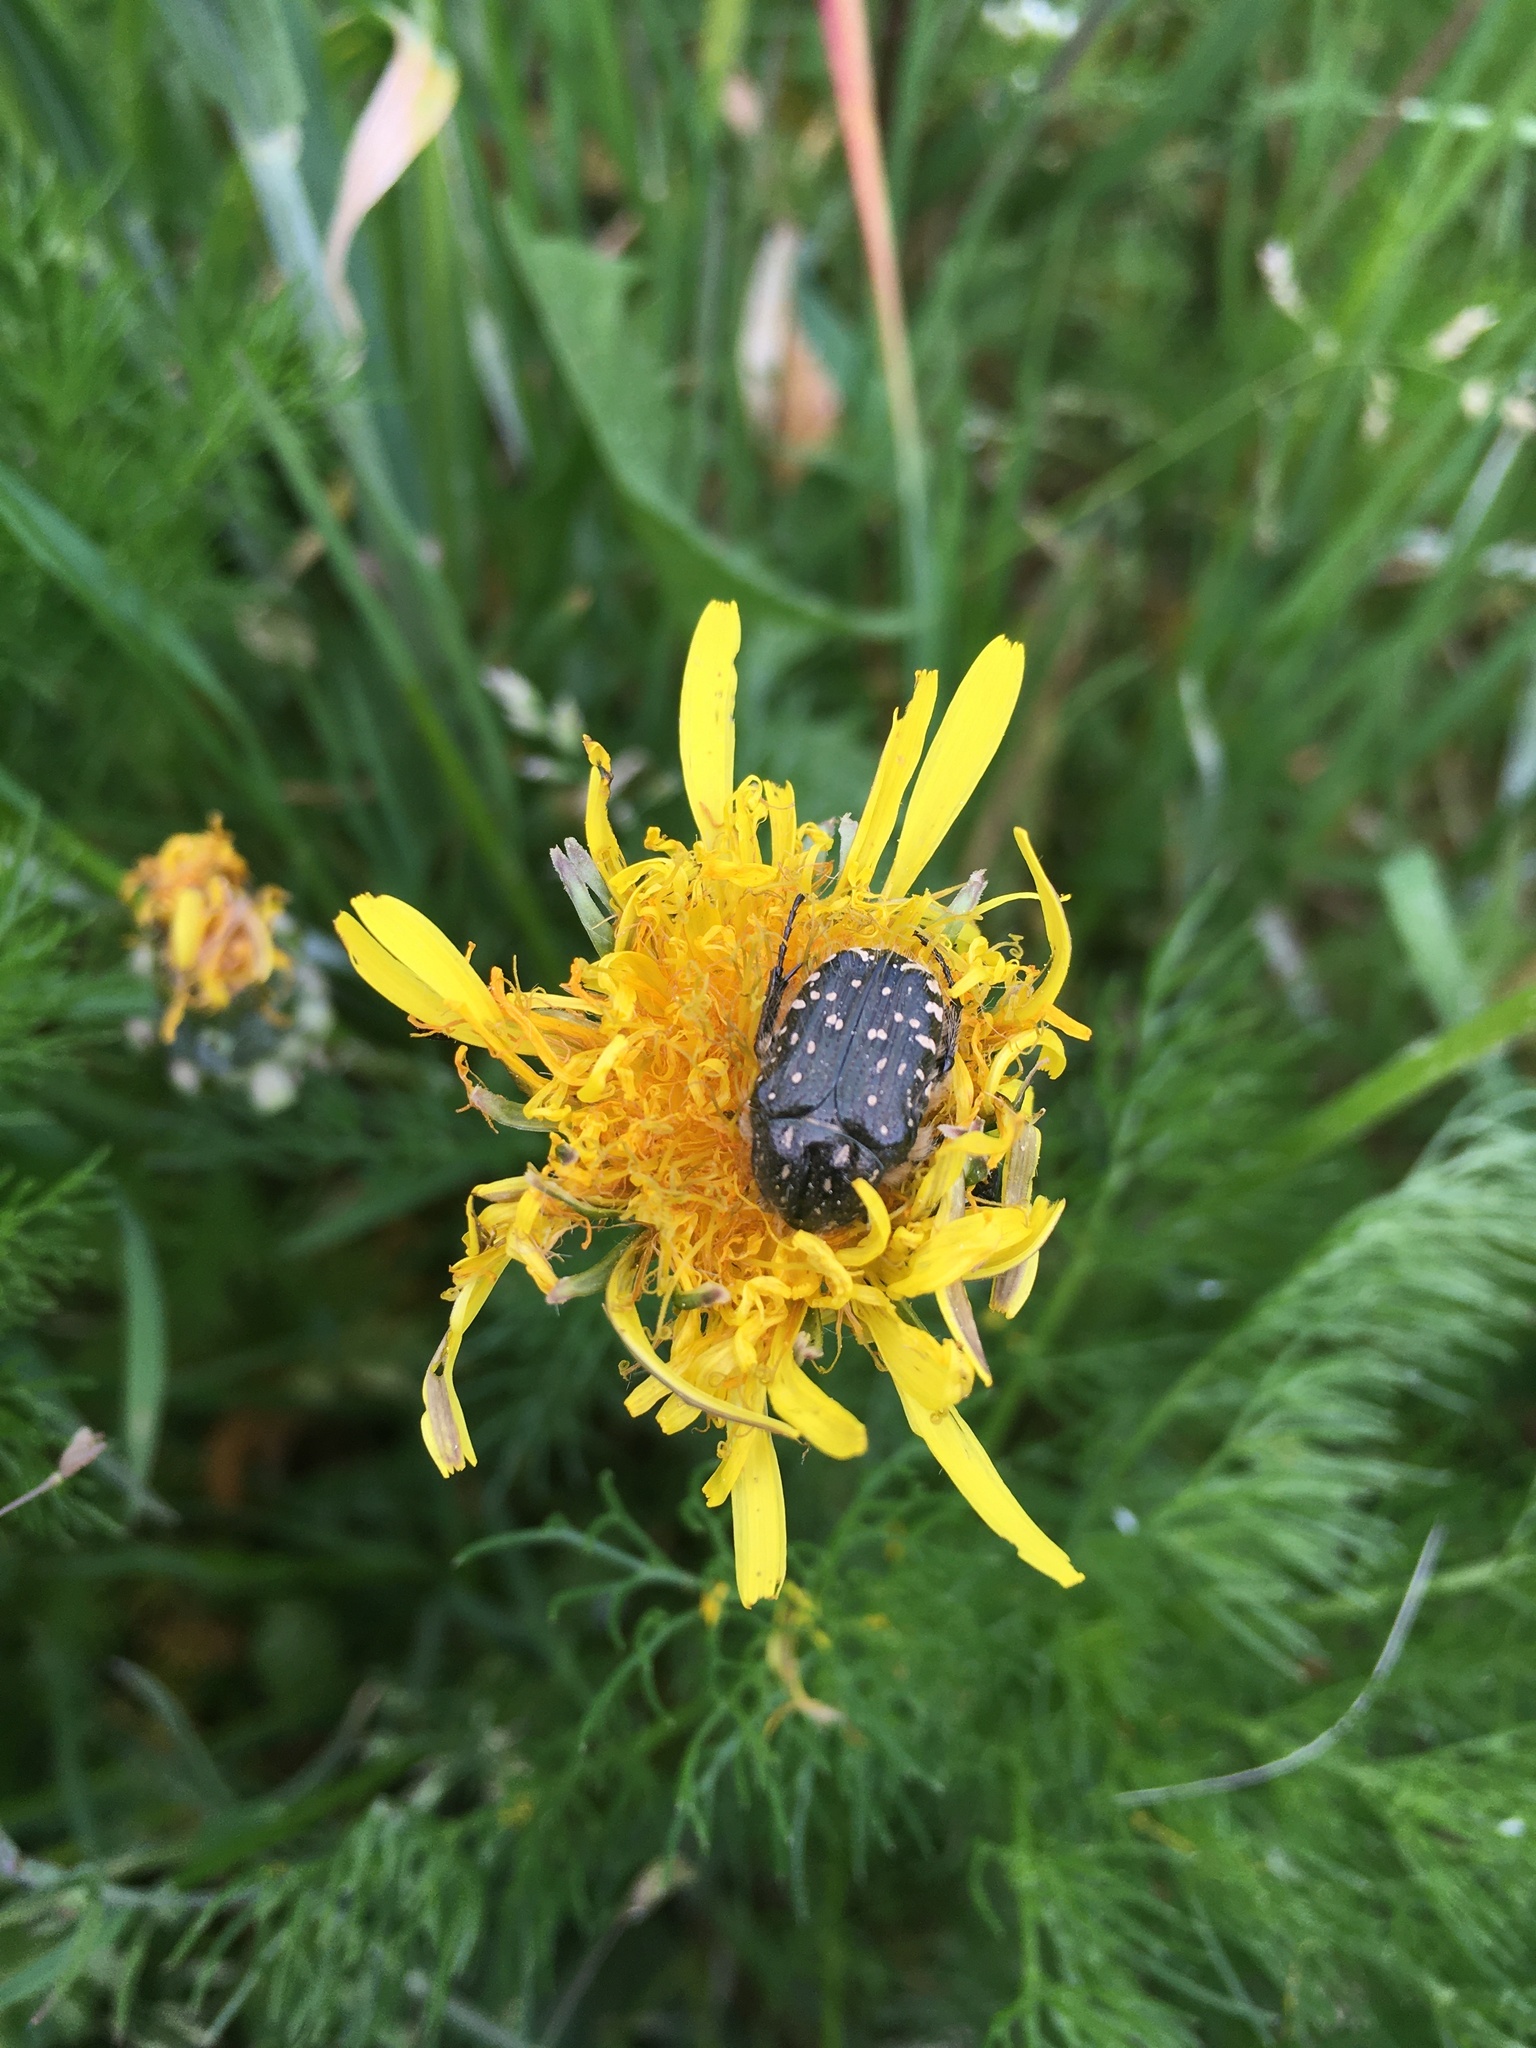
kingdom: Animalia
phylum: Arthropoda
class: Insecta
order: Coleoptera
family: Scarabaeidae
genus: Oxythyrea
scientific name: Oxythyrea funesta
